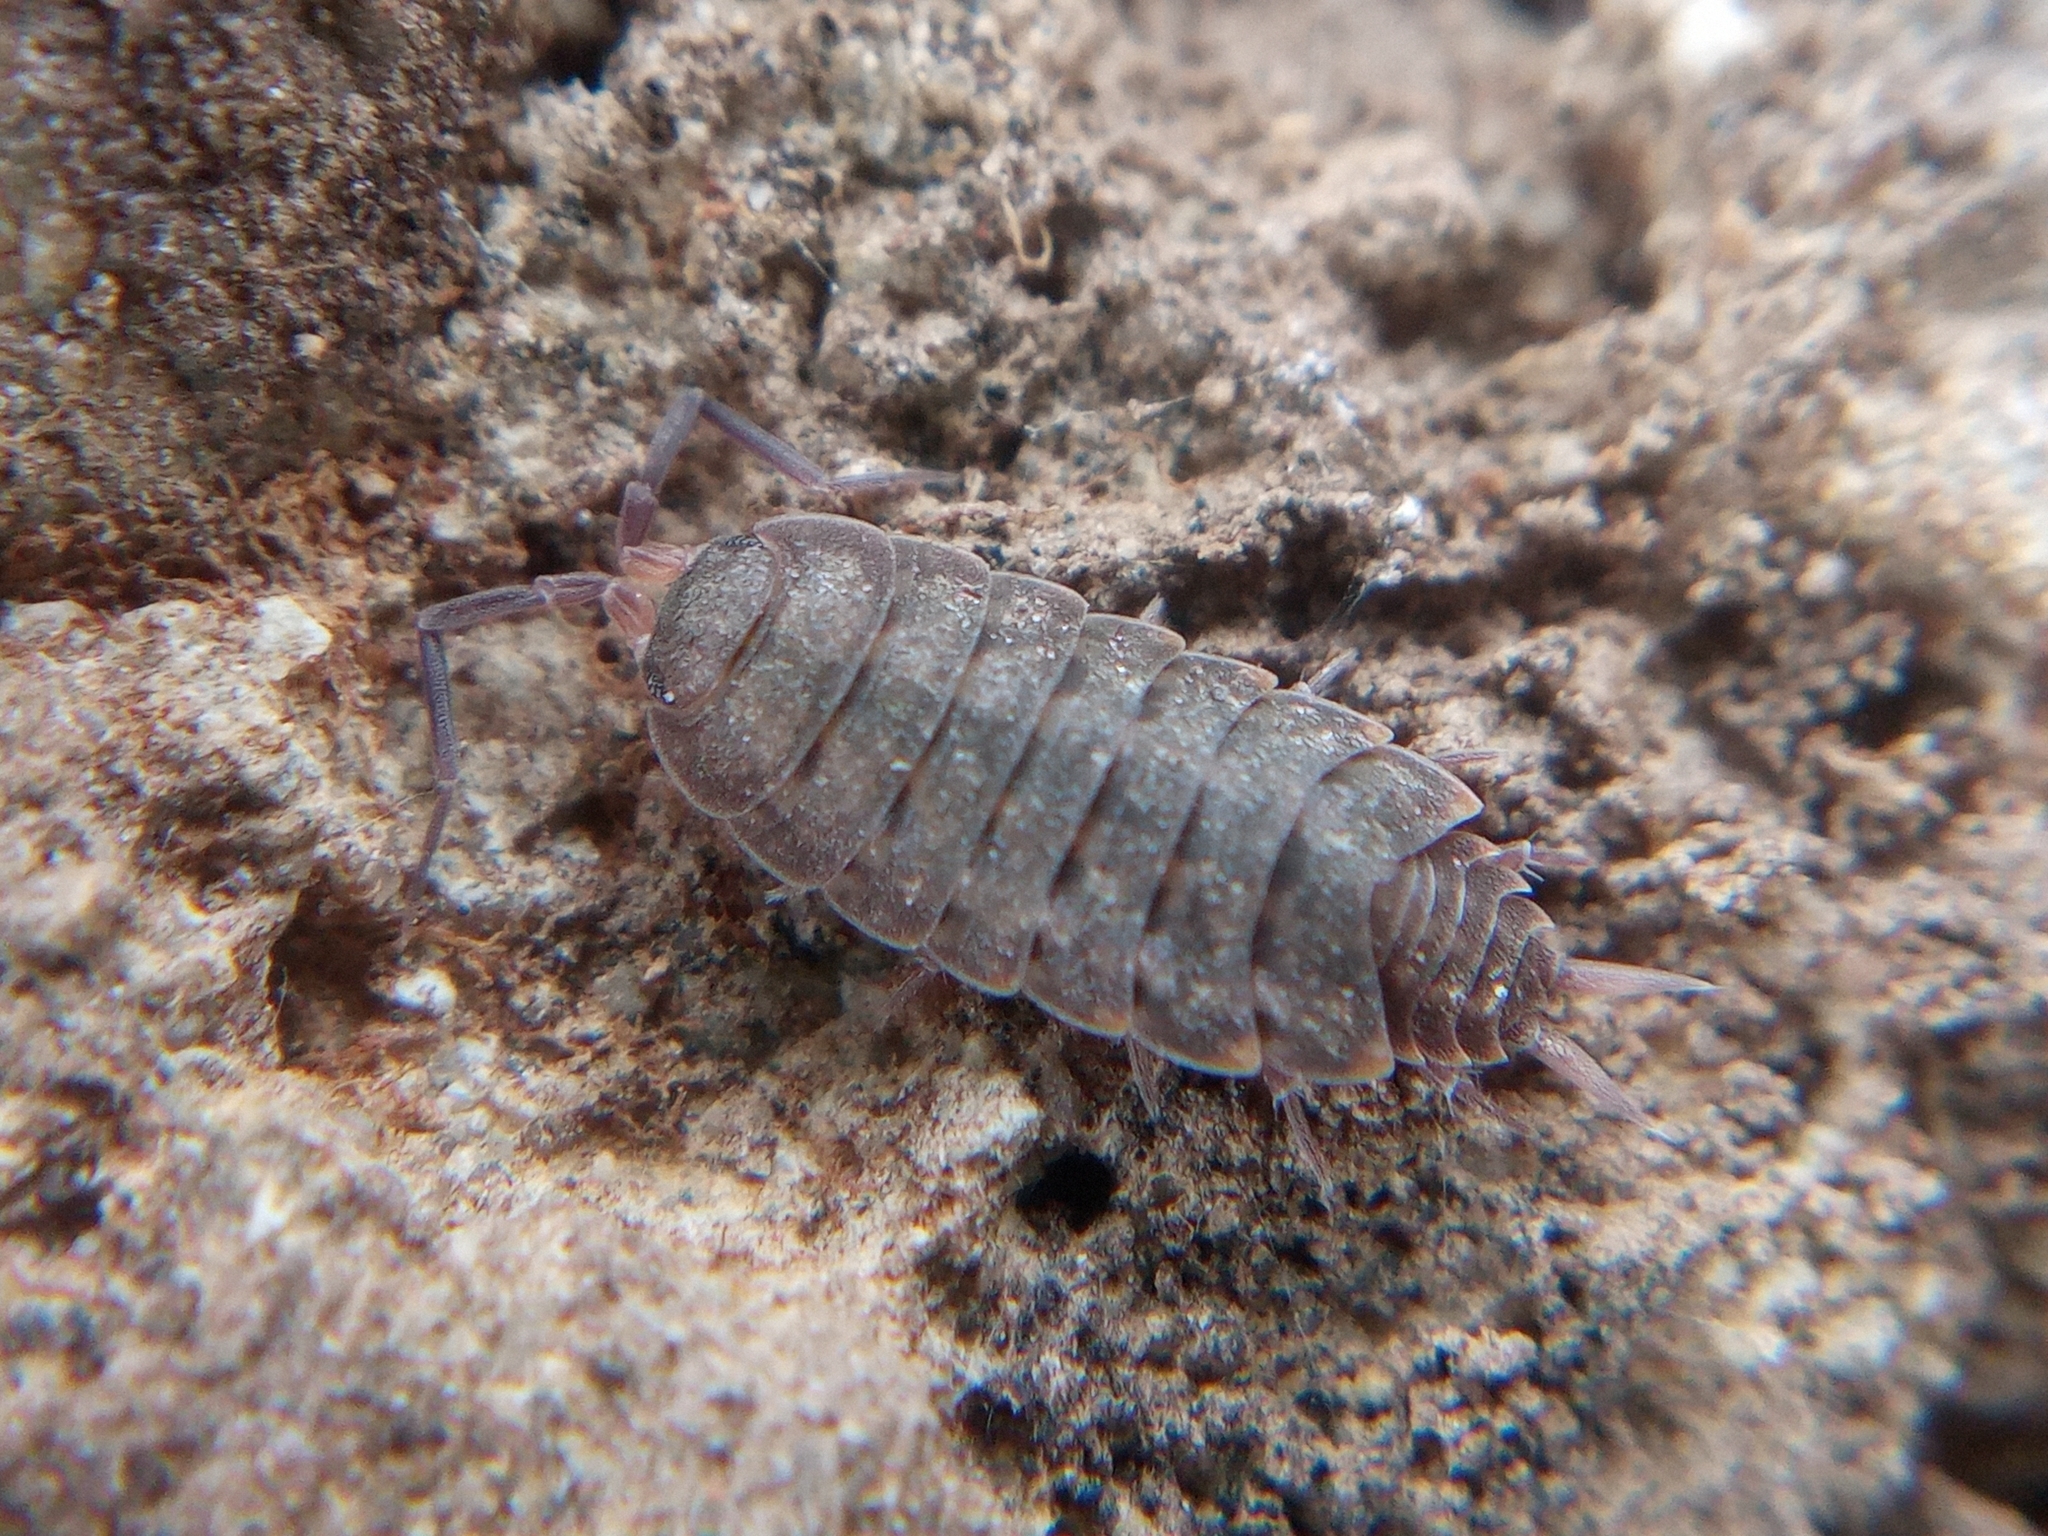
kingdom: Animalia
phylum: Arthropoda
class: Malacostraca
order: Isopoda
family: Agnaridae
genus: Orthometopon
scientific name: Orthometopon planum
